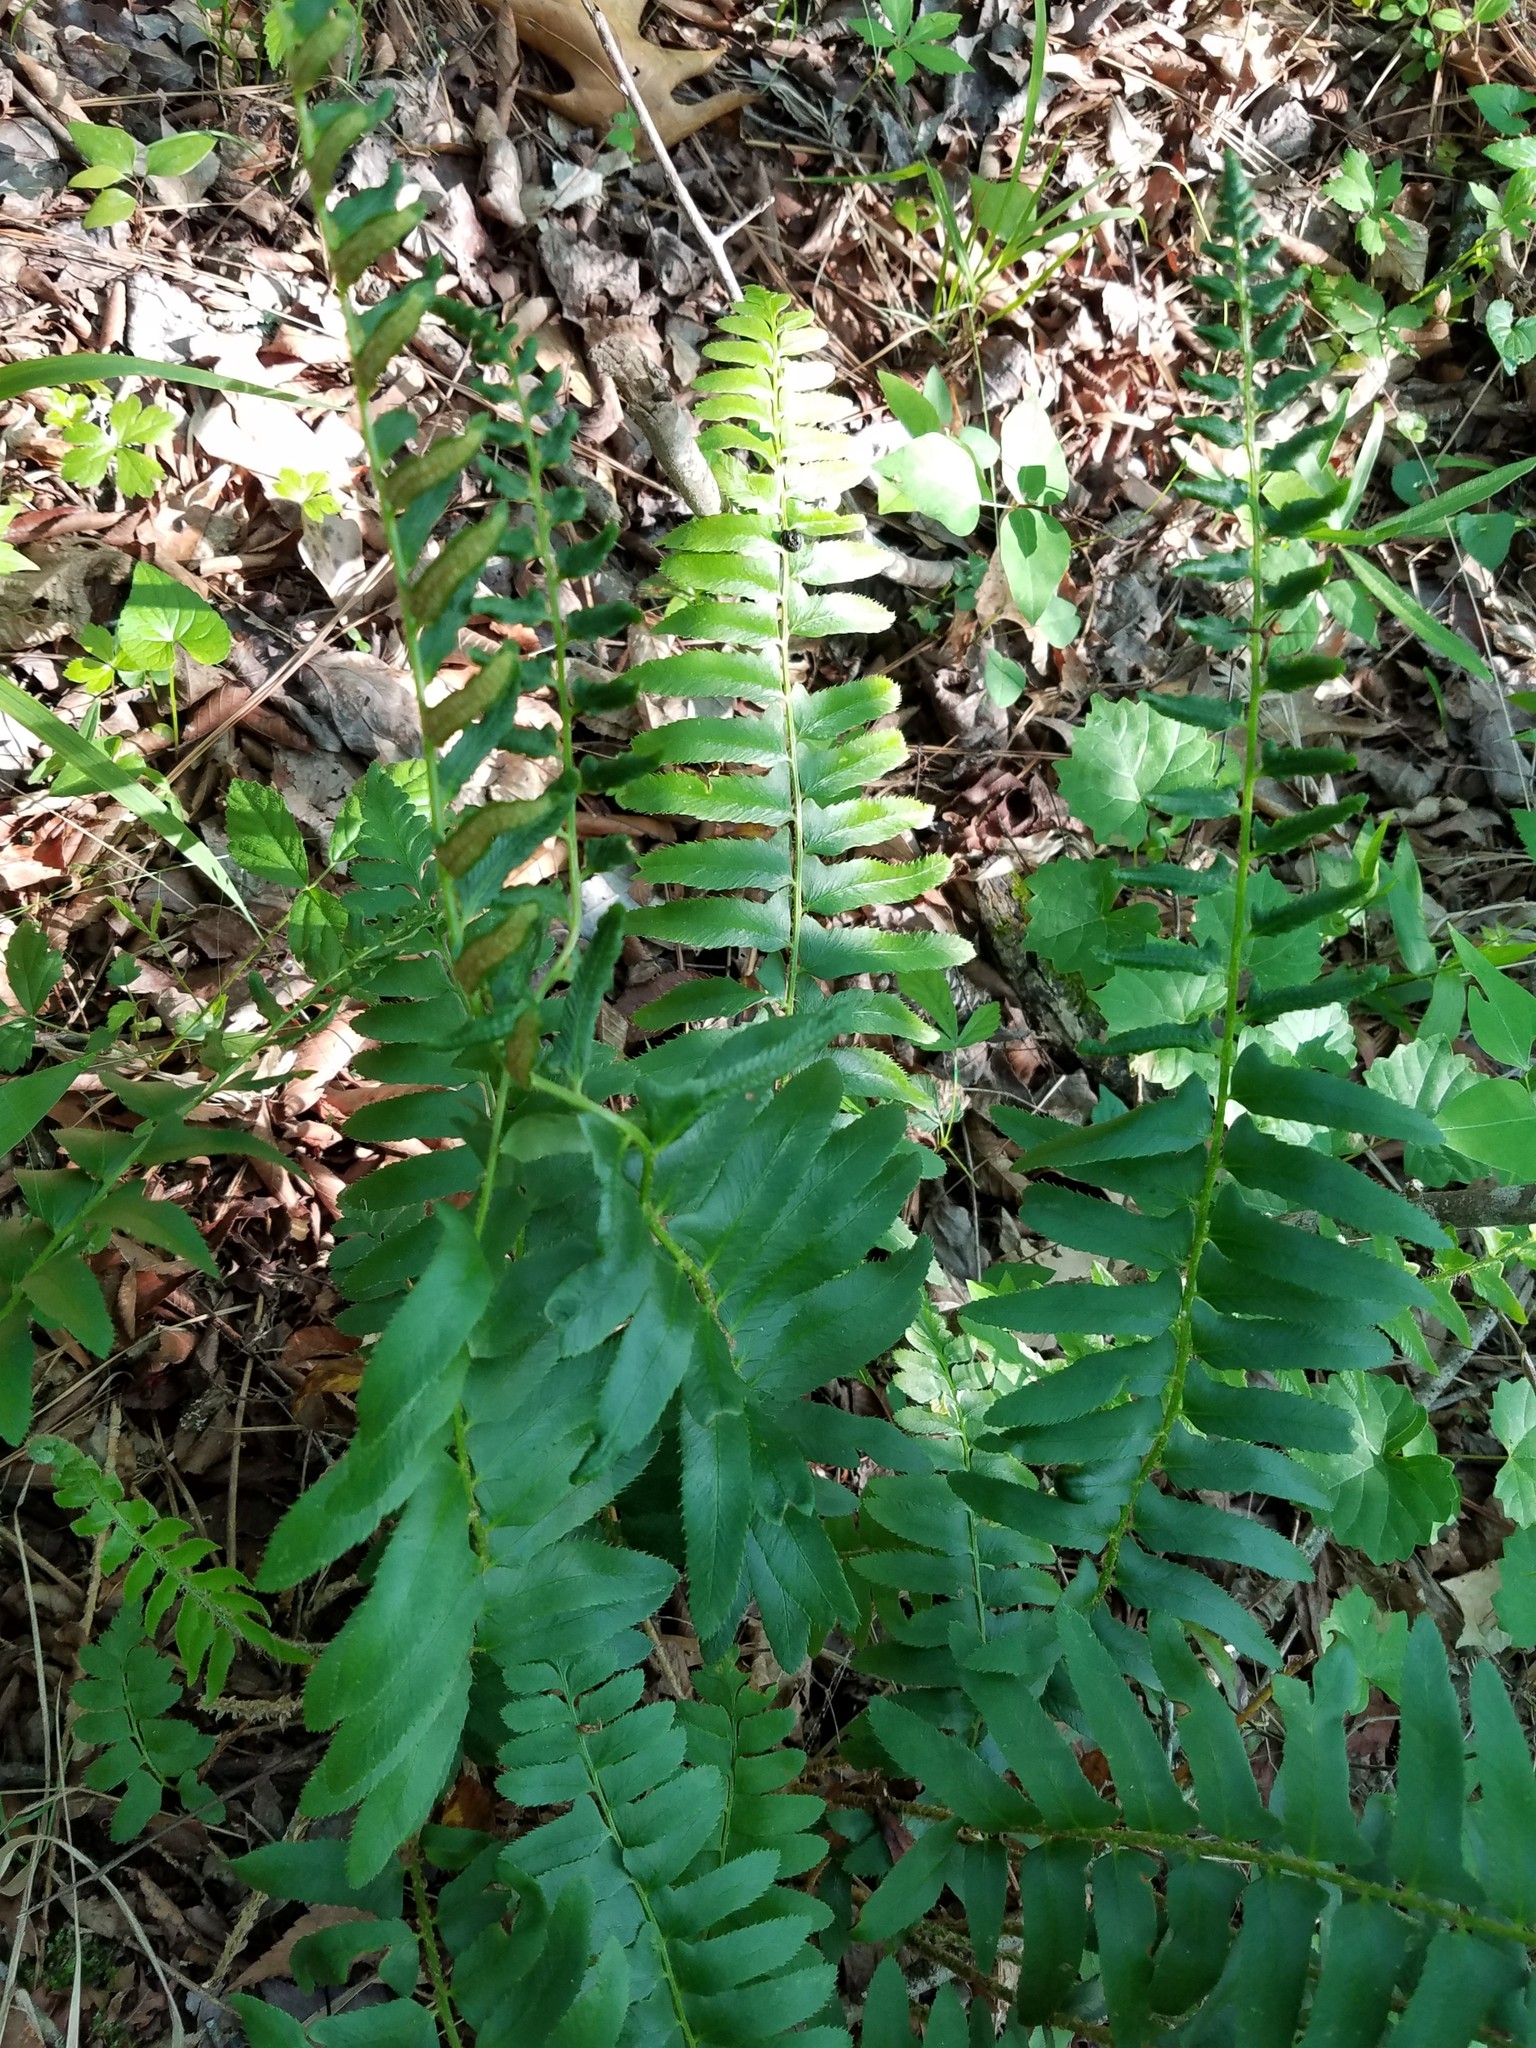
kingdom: Plantae
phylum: Tracheophyta
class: Polypodiopsida
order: Polypodiales
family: Dryopteridaceae
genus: Polystichum
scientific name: Polystichum acrostichoides
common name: Christmas fern
